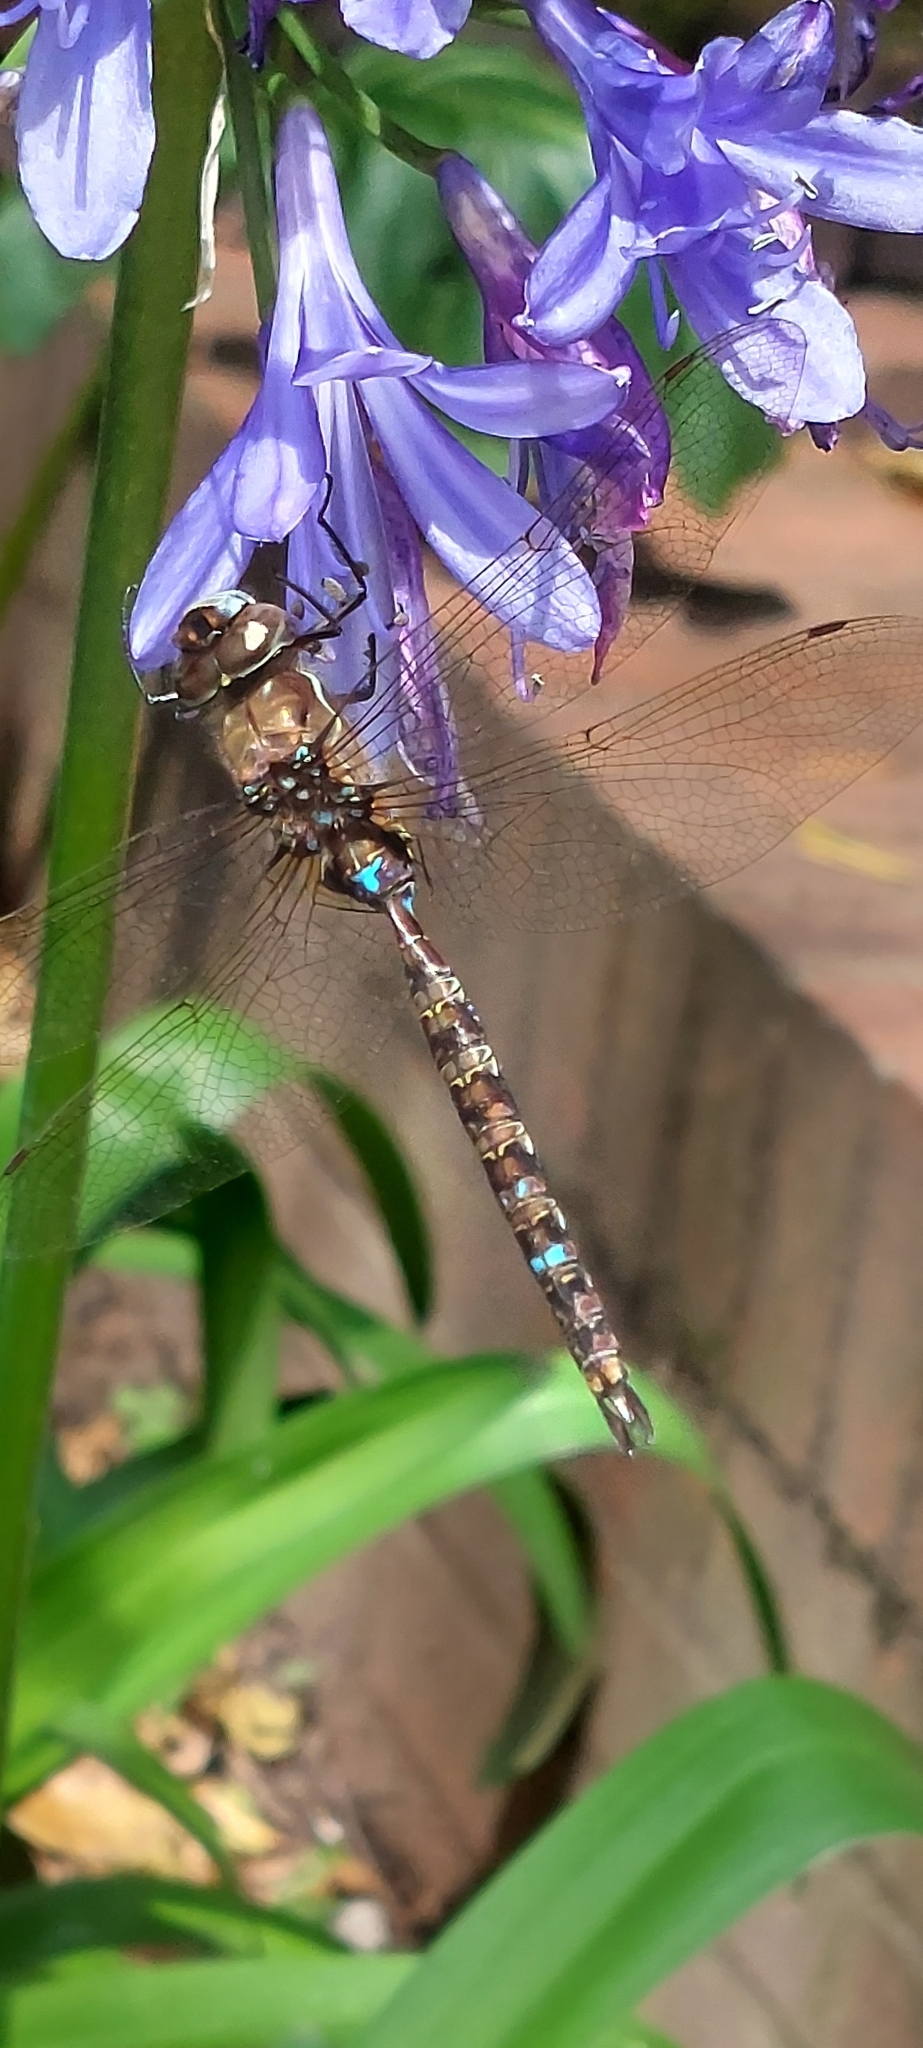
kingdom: Animalia
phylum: Arthropoda
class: Insecta
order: Odonata
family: Aeshnidae
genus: Rhionaeschna
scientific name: Rhionaeschna marchali
